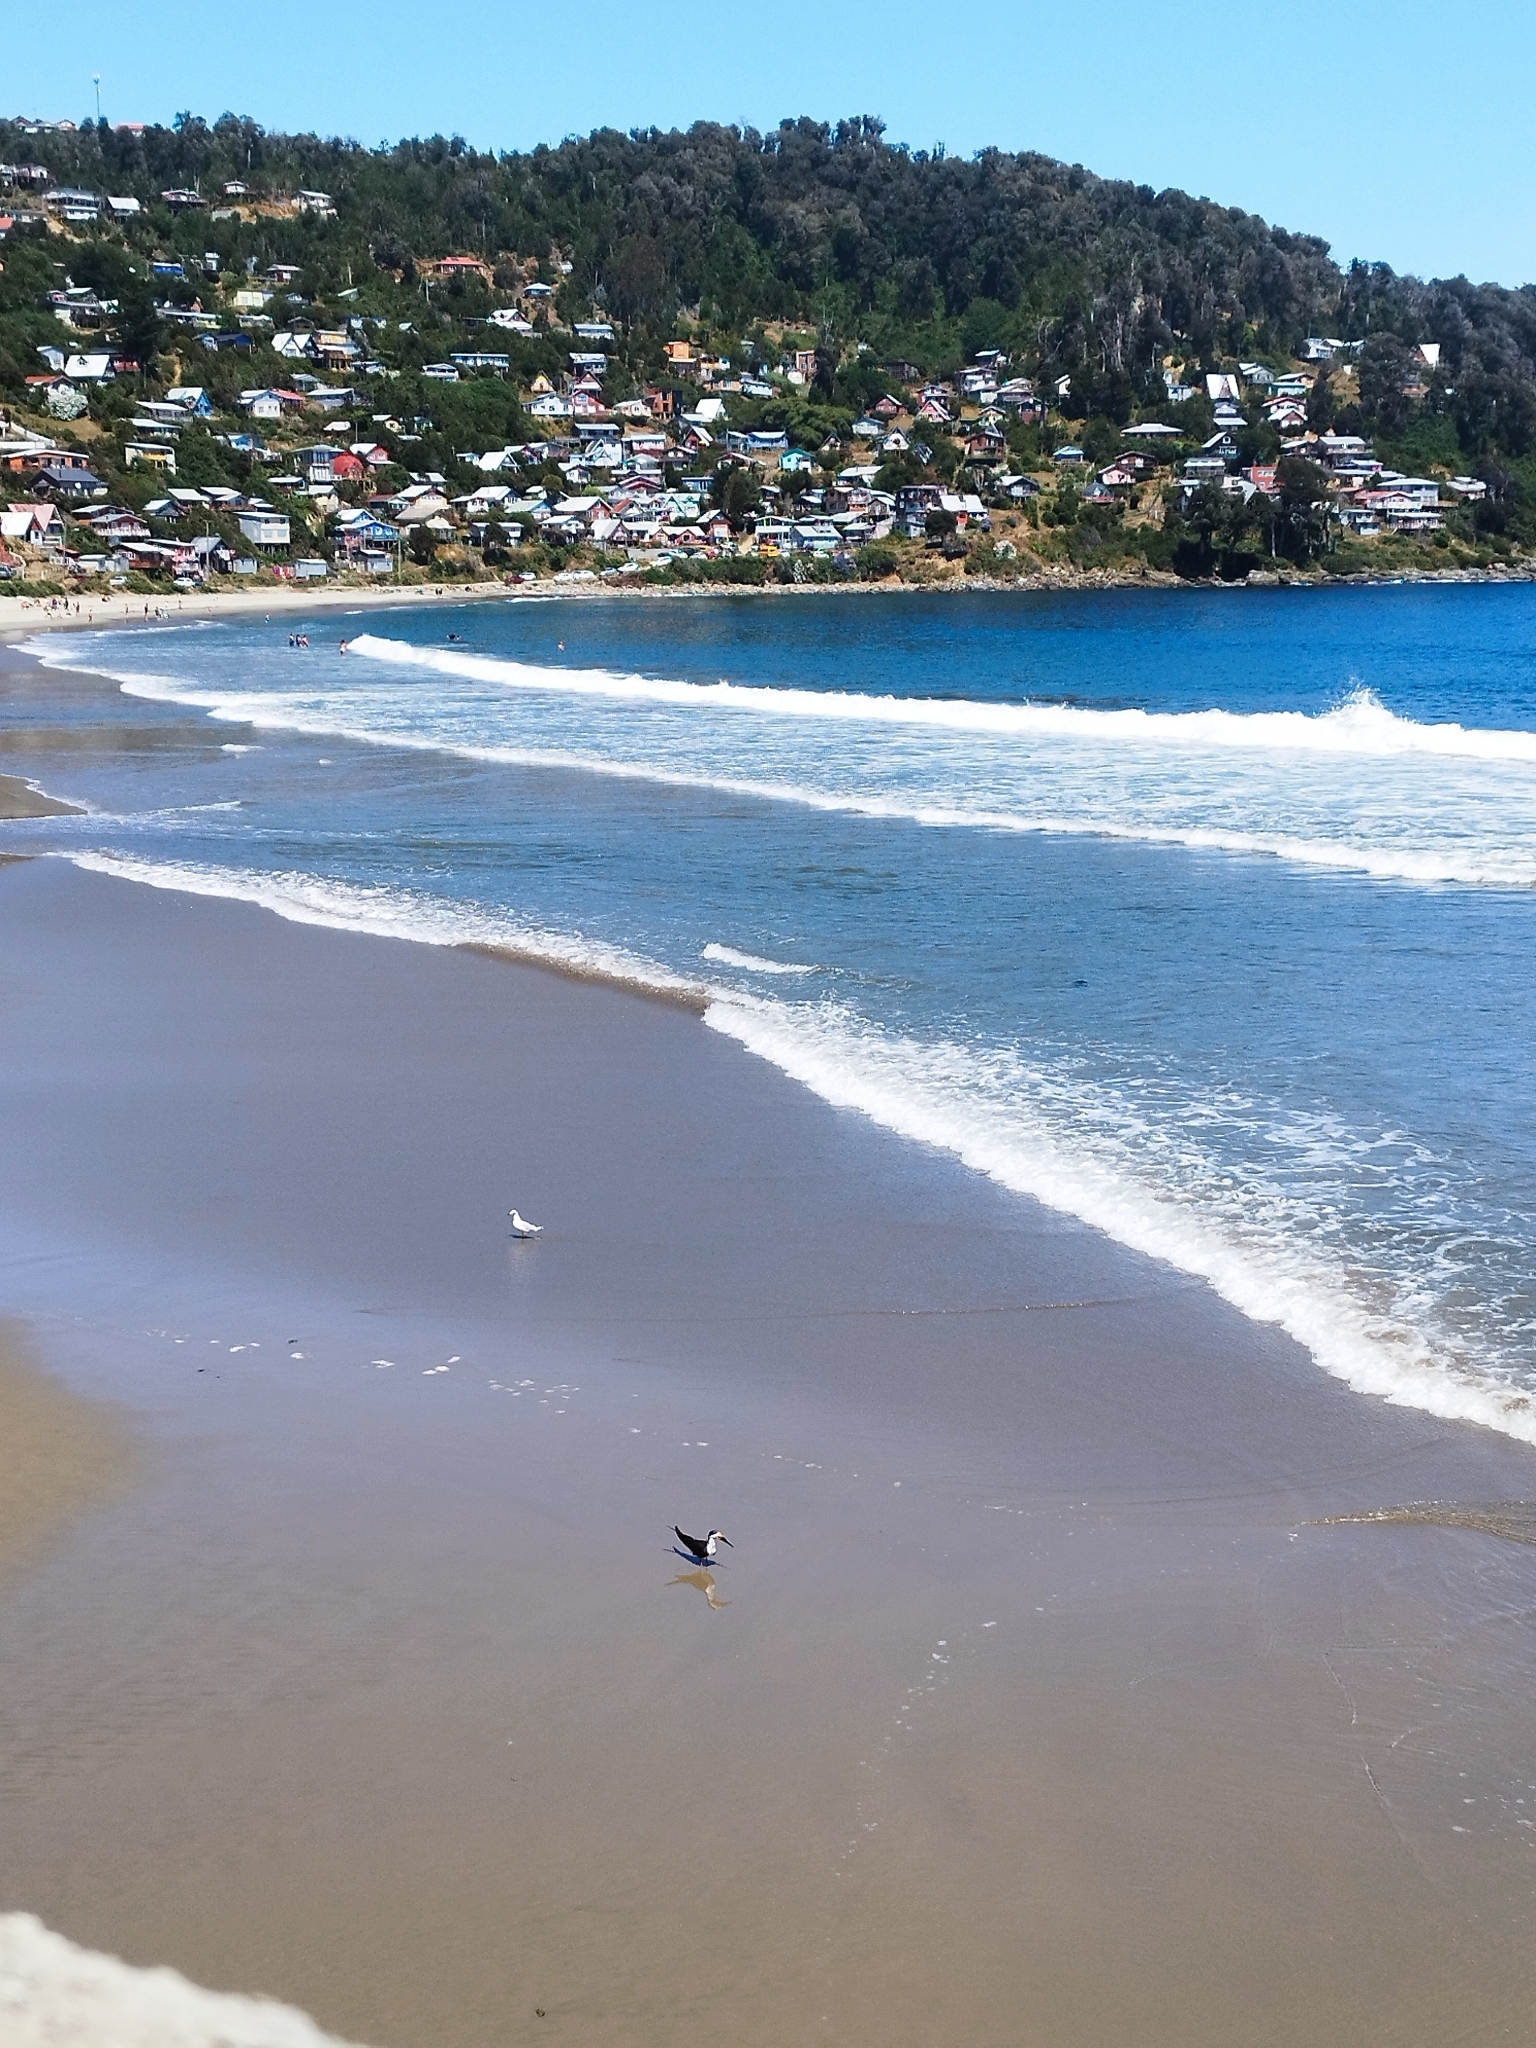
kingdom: Animalia
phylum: Chordata
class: Aves
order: Charadriiformes
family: Laridae
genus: Rynchops
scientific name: Rynchops niger
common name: Black skimmer
